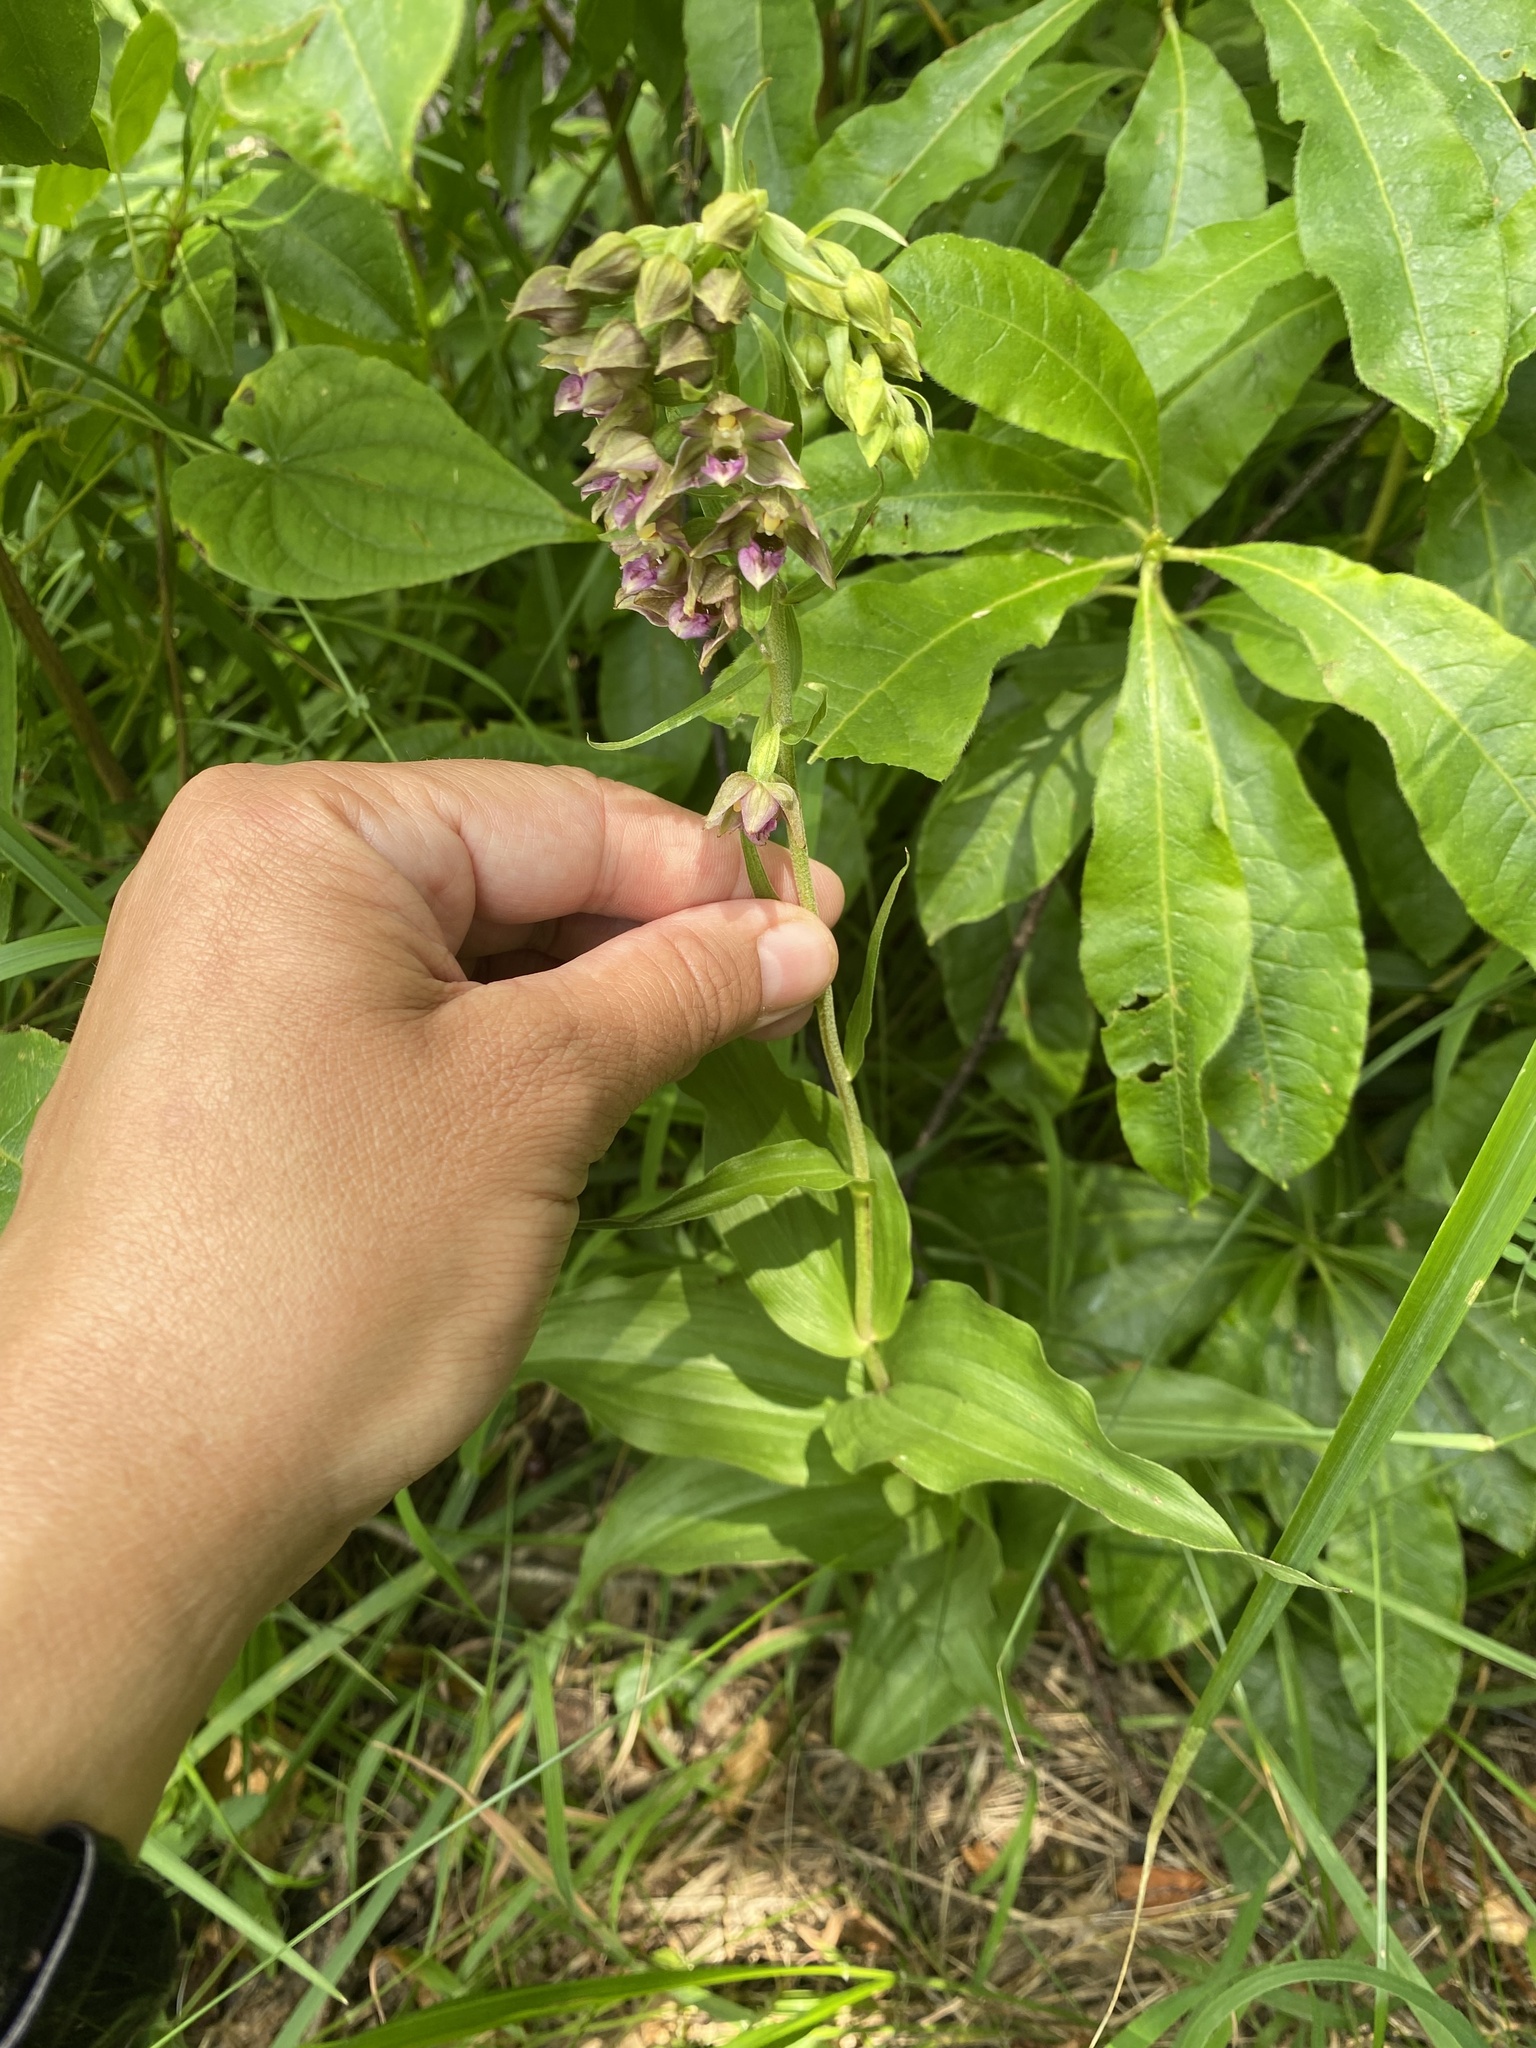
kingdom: Plantae
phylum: Tracheophyta
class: Liliopsida
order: Asparagales
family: Orchidaceae
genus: Epipactis
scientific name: Epipactis helleborine
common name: Broad-leaved helleborine
